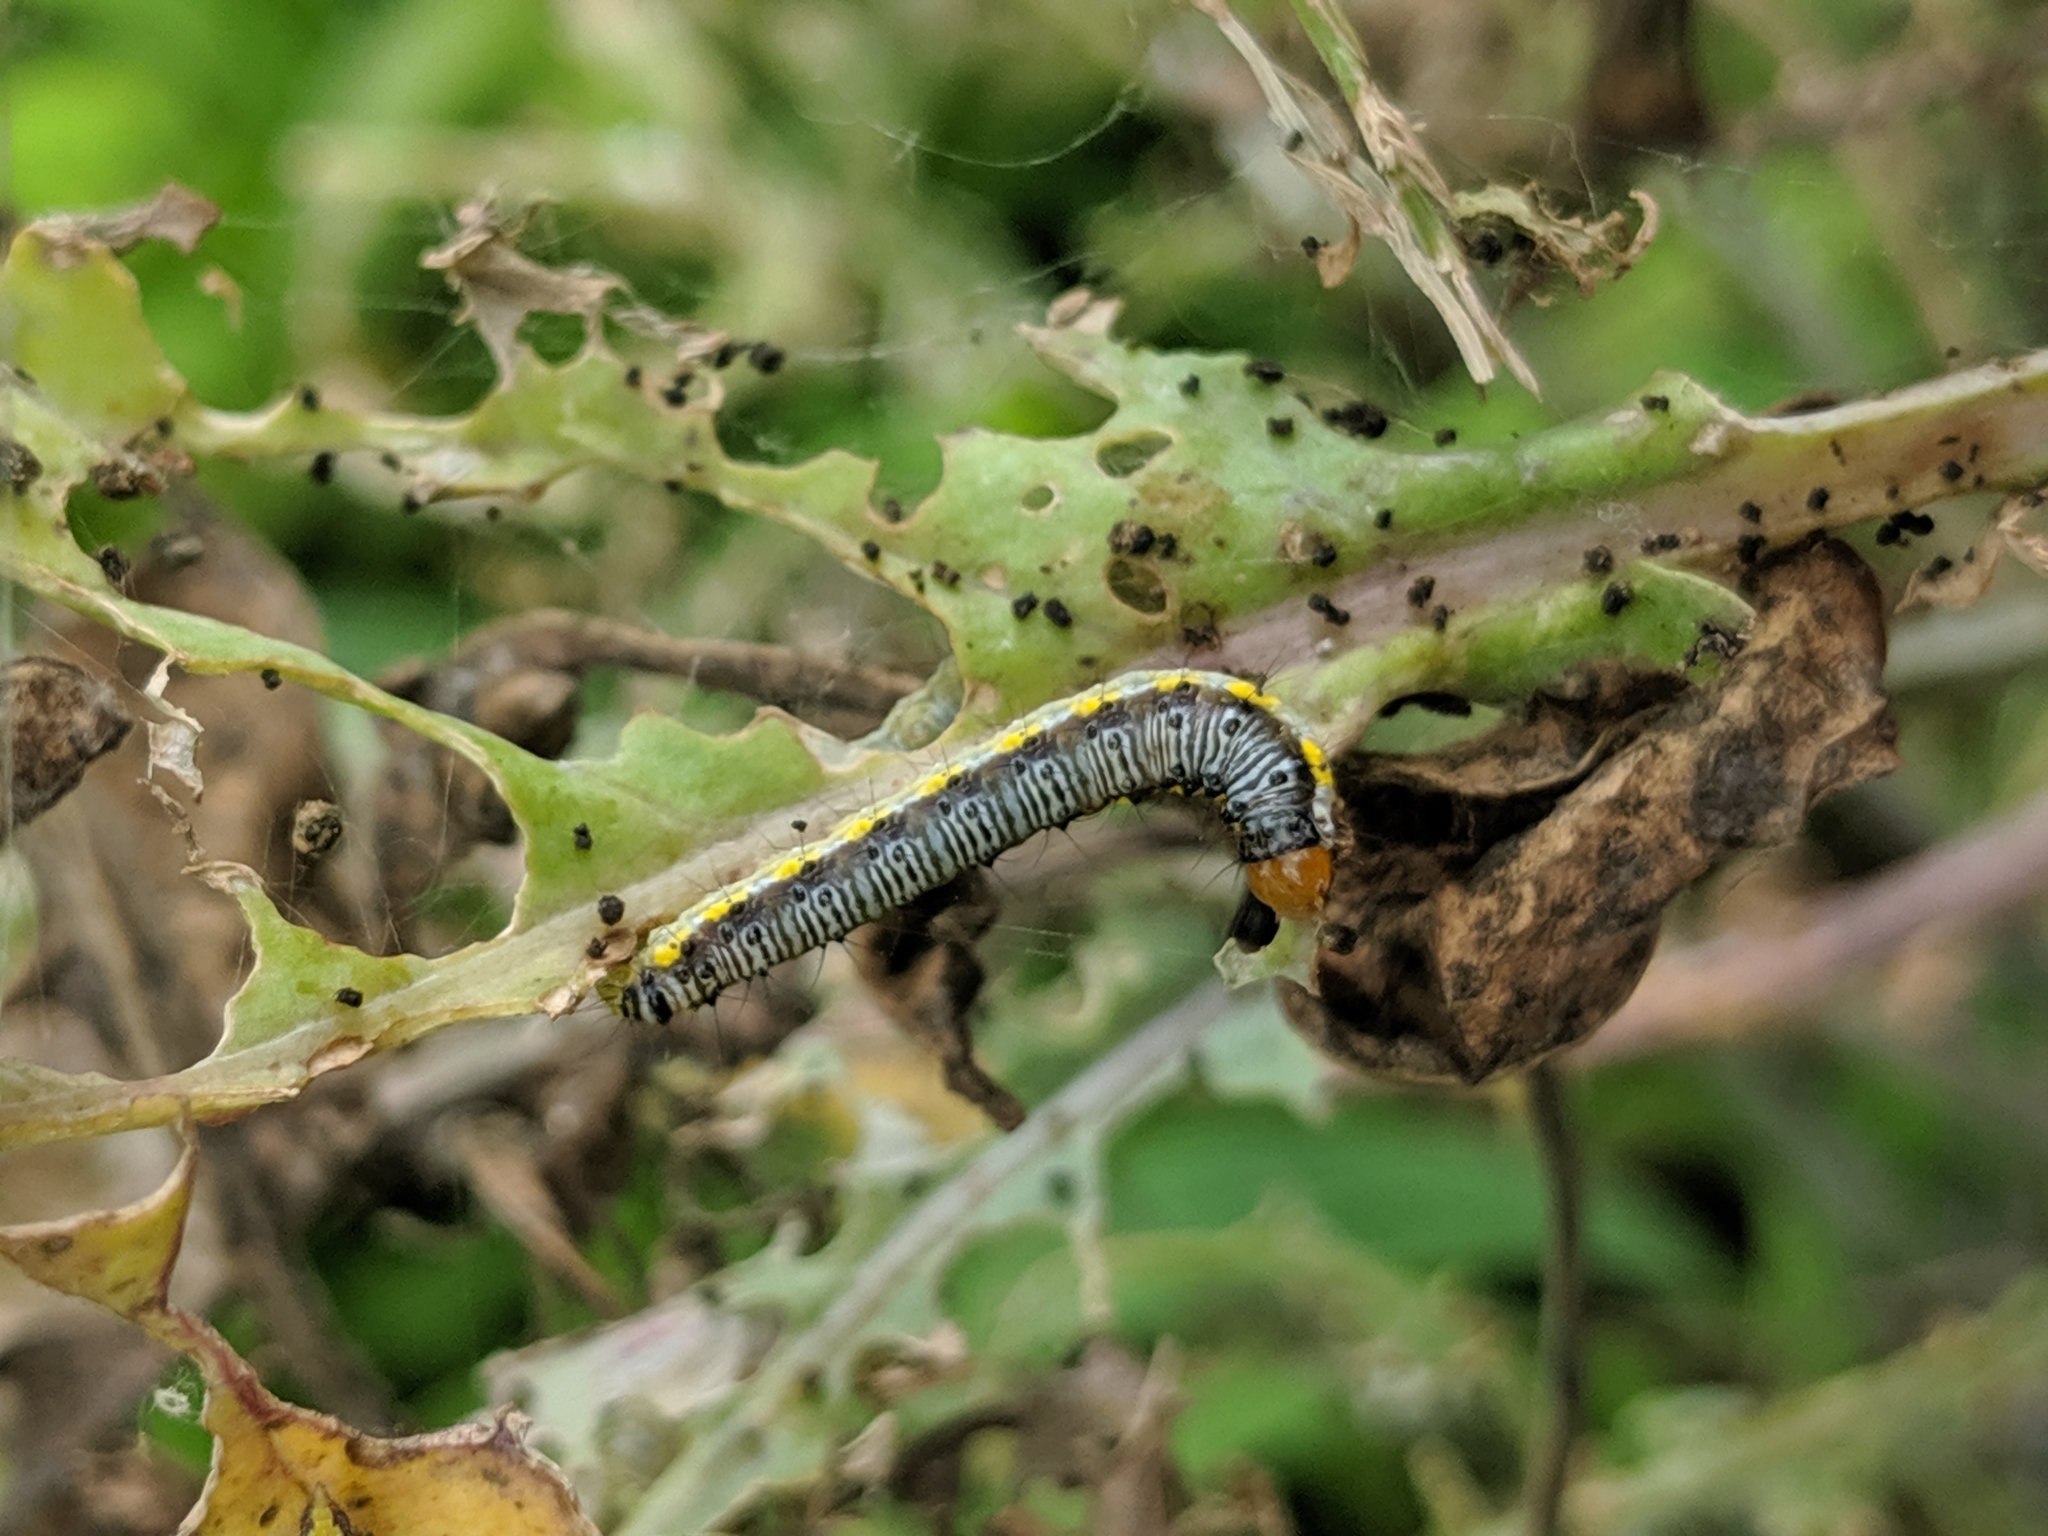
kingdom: Animalia
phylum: Arthropoda
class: Insecta
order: Lepidoptera
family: Crambidae
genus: Evergestis
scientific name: Evergestis rimosalis
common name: Cross-striped cabbageworm moth
